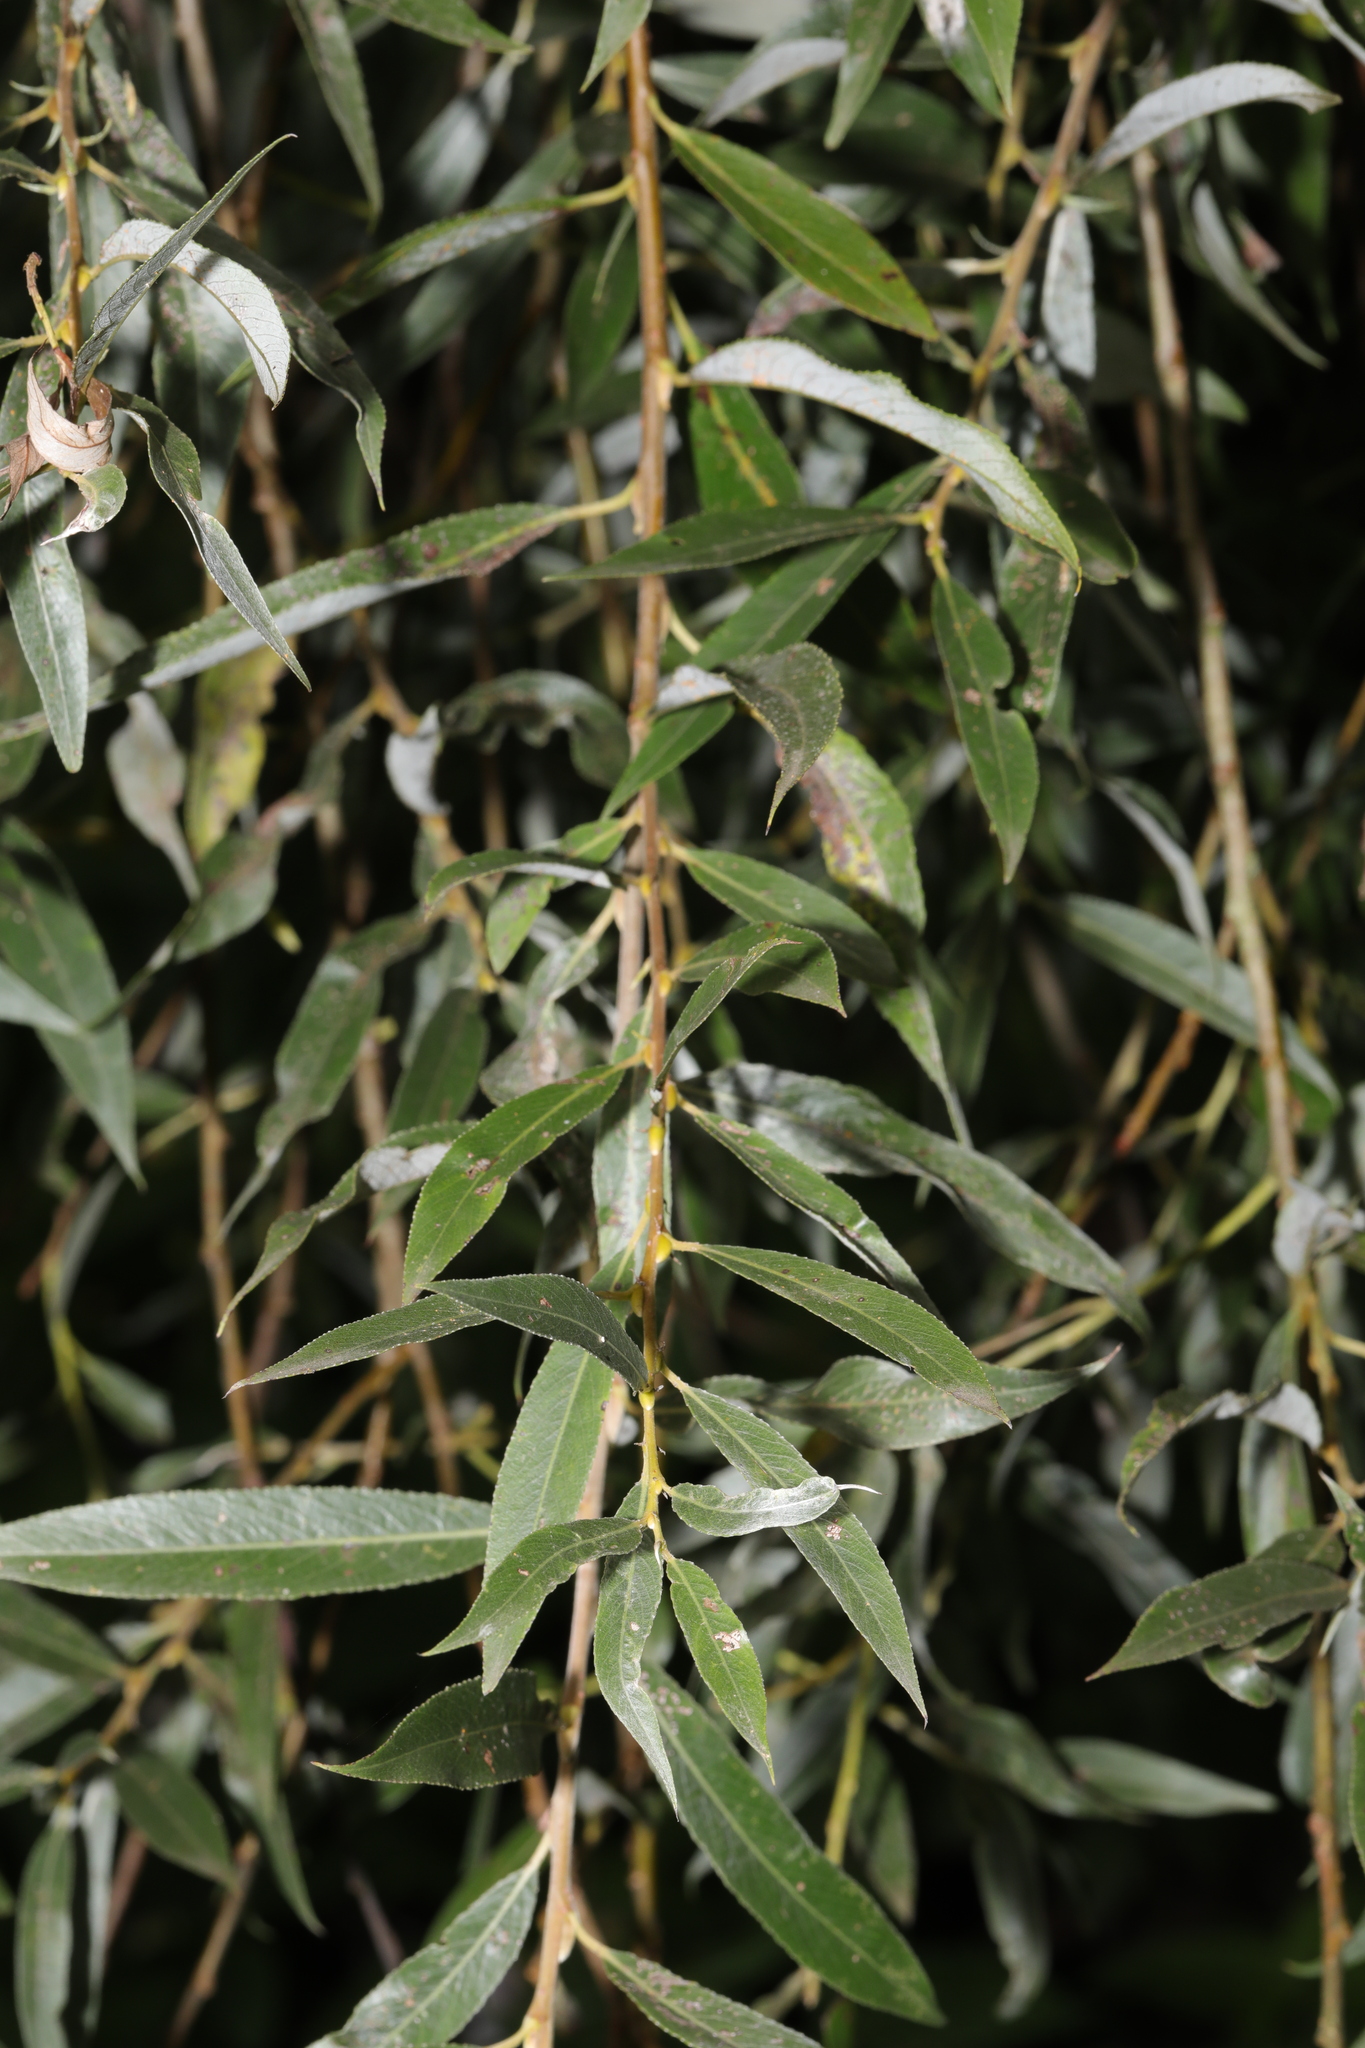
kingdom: Plantae
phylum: Tracheophyta
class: Magnoliopsida
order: Malpighiales
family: Salicaceae
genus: Salix
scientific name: Salix alba
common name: White willow
